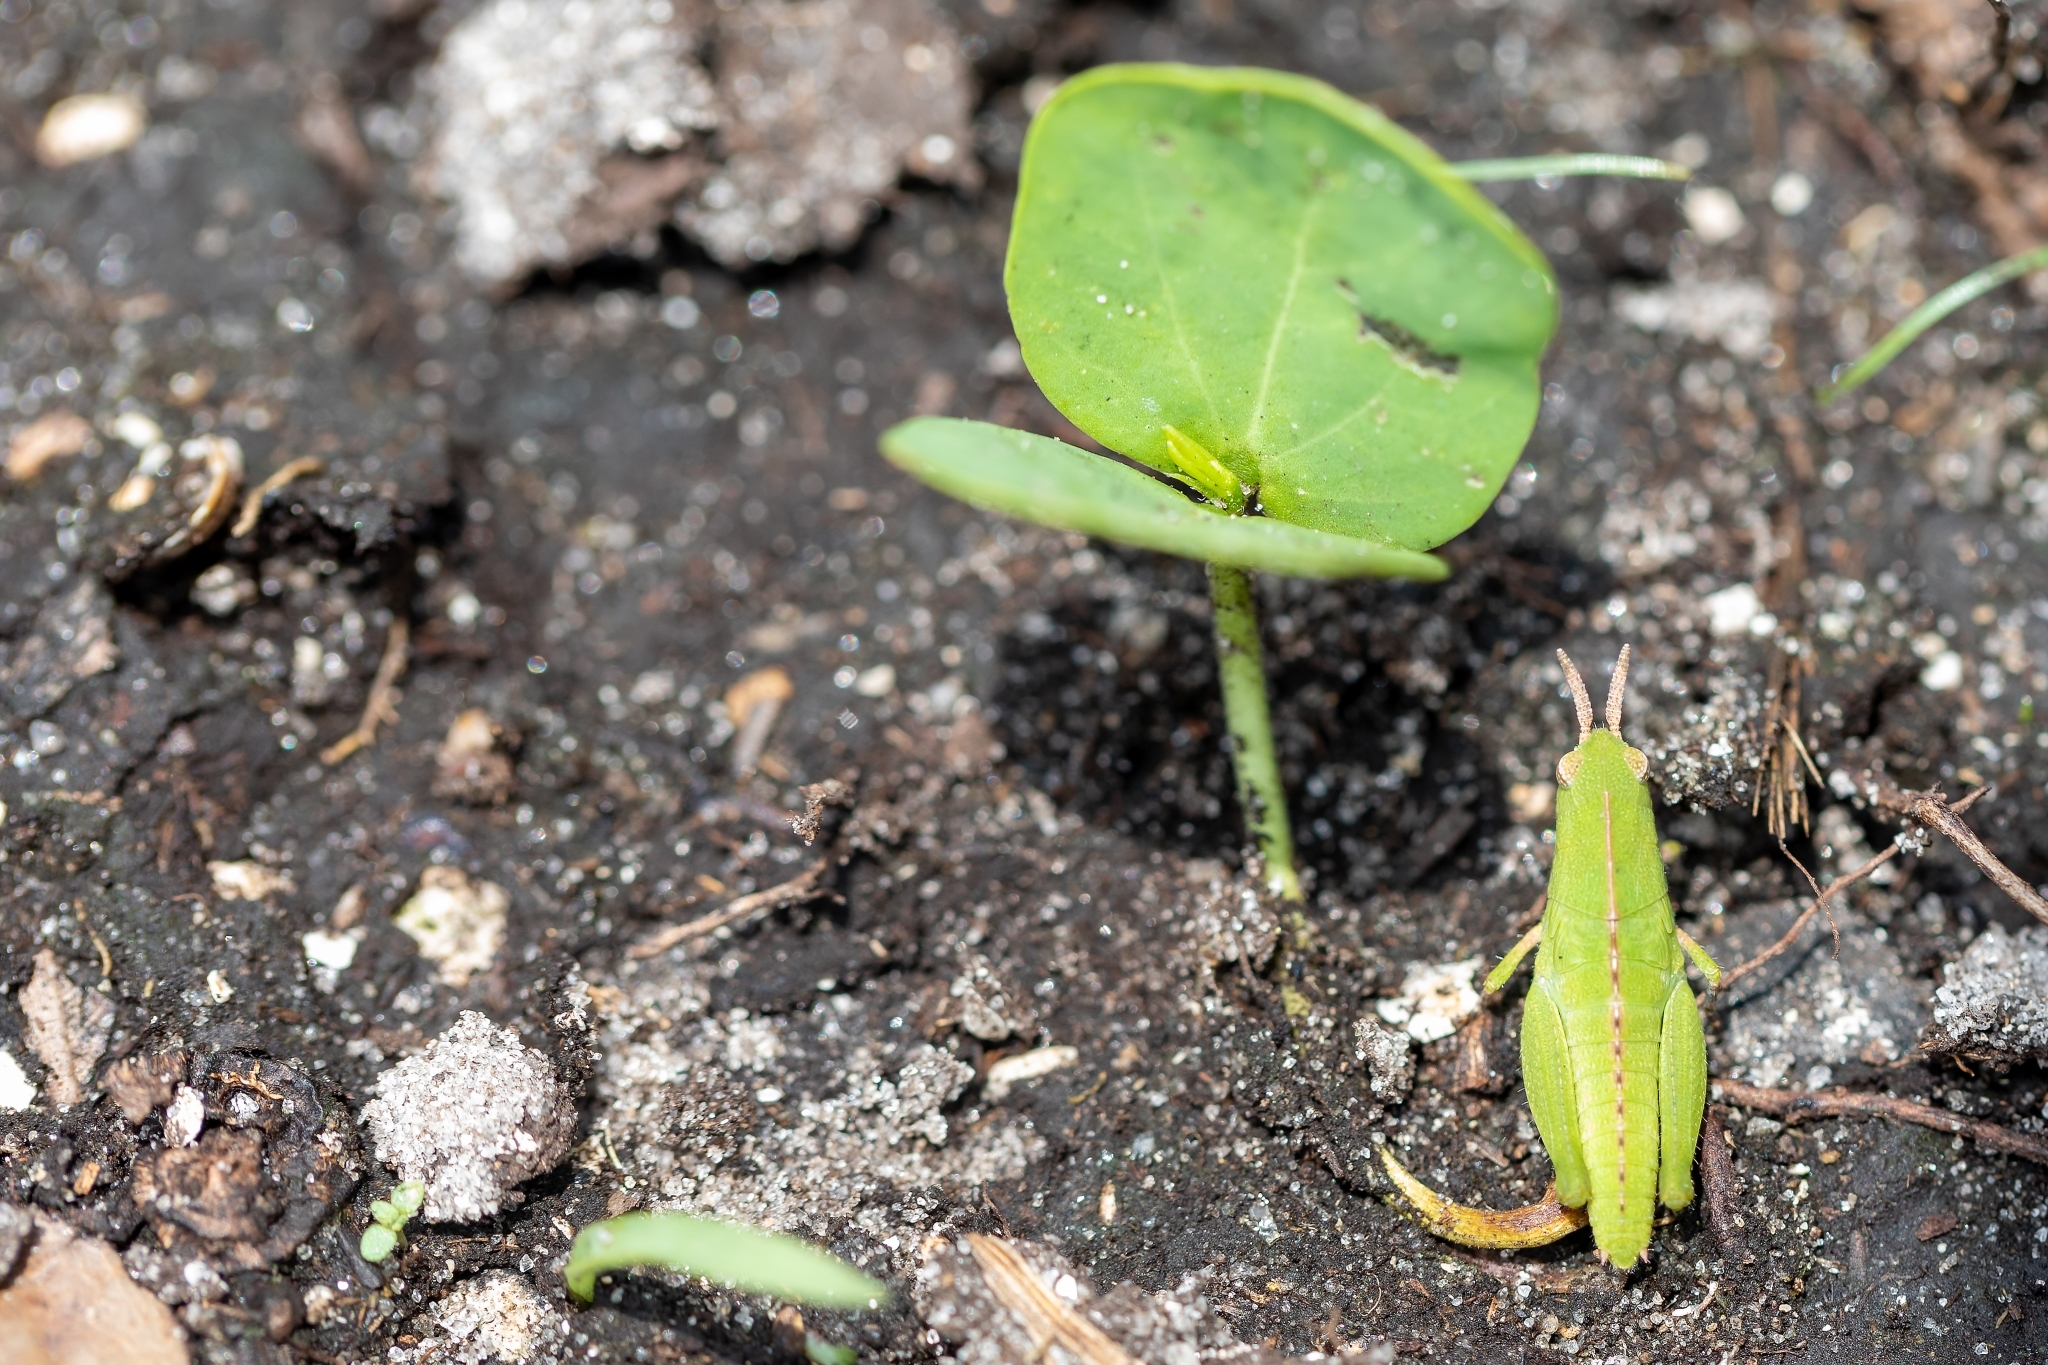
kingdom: Animalia
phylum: Arthropoda
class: Insecta
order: Orthoptera
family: Acrididae
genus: Chortophaga
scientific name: Chortophaga australior
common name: Southern green-striped grasshopper
